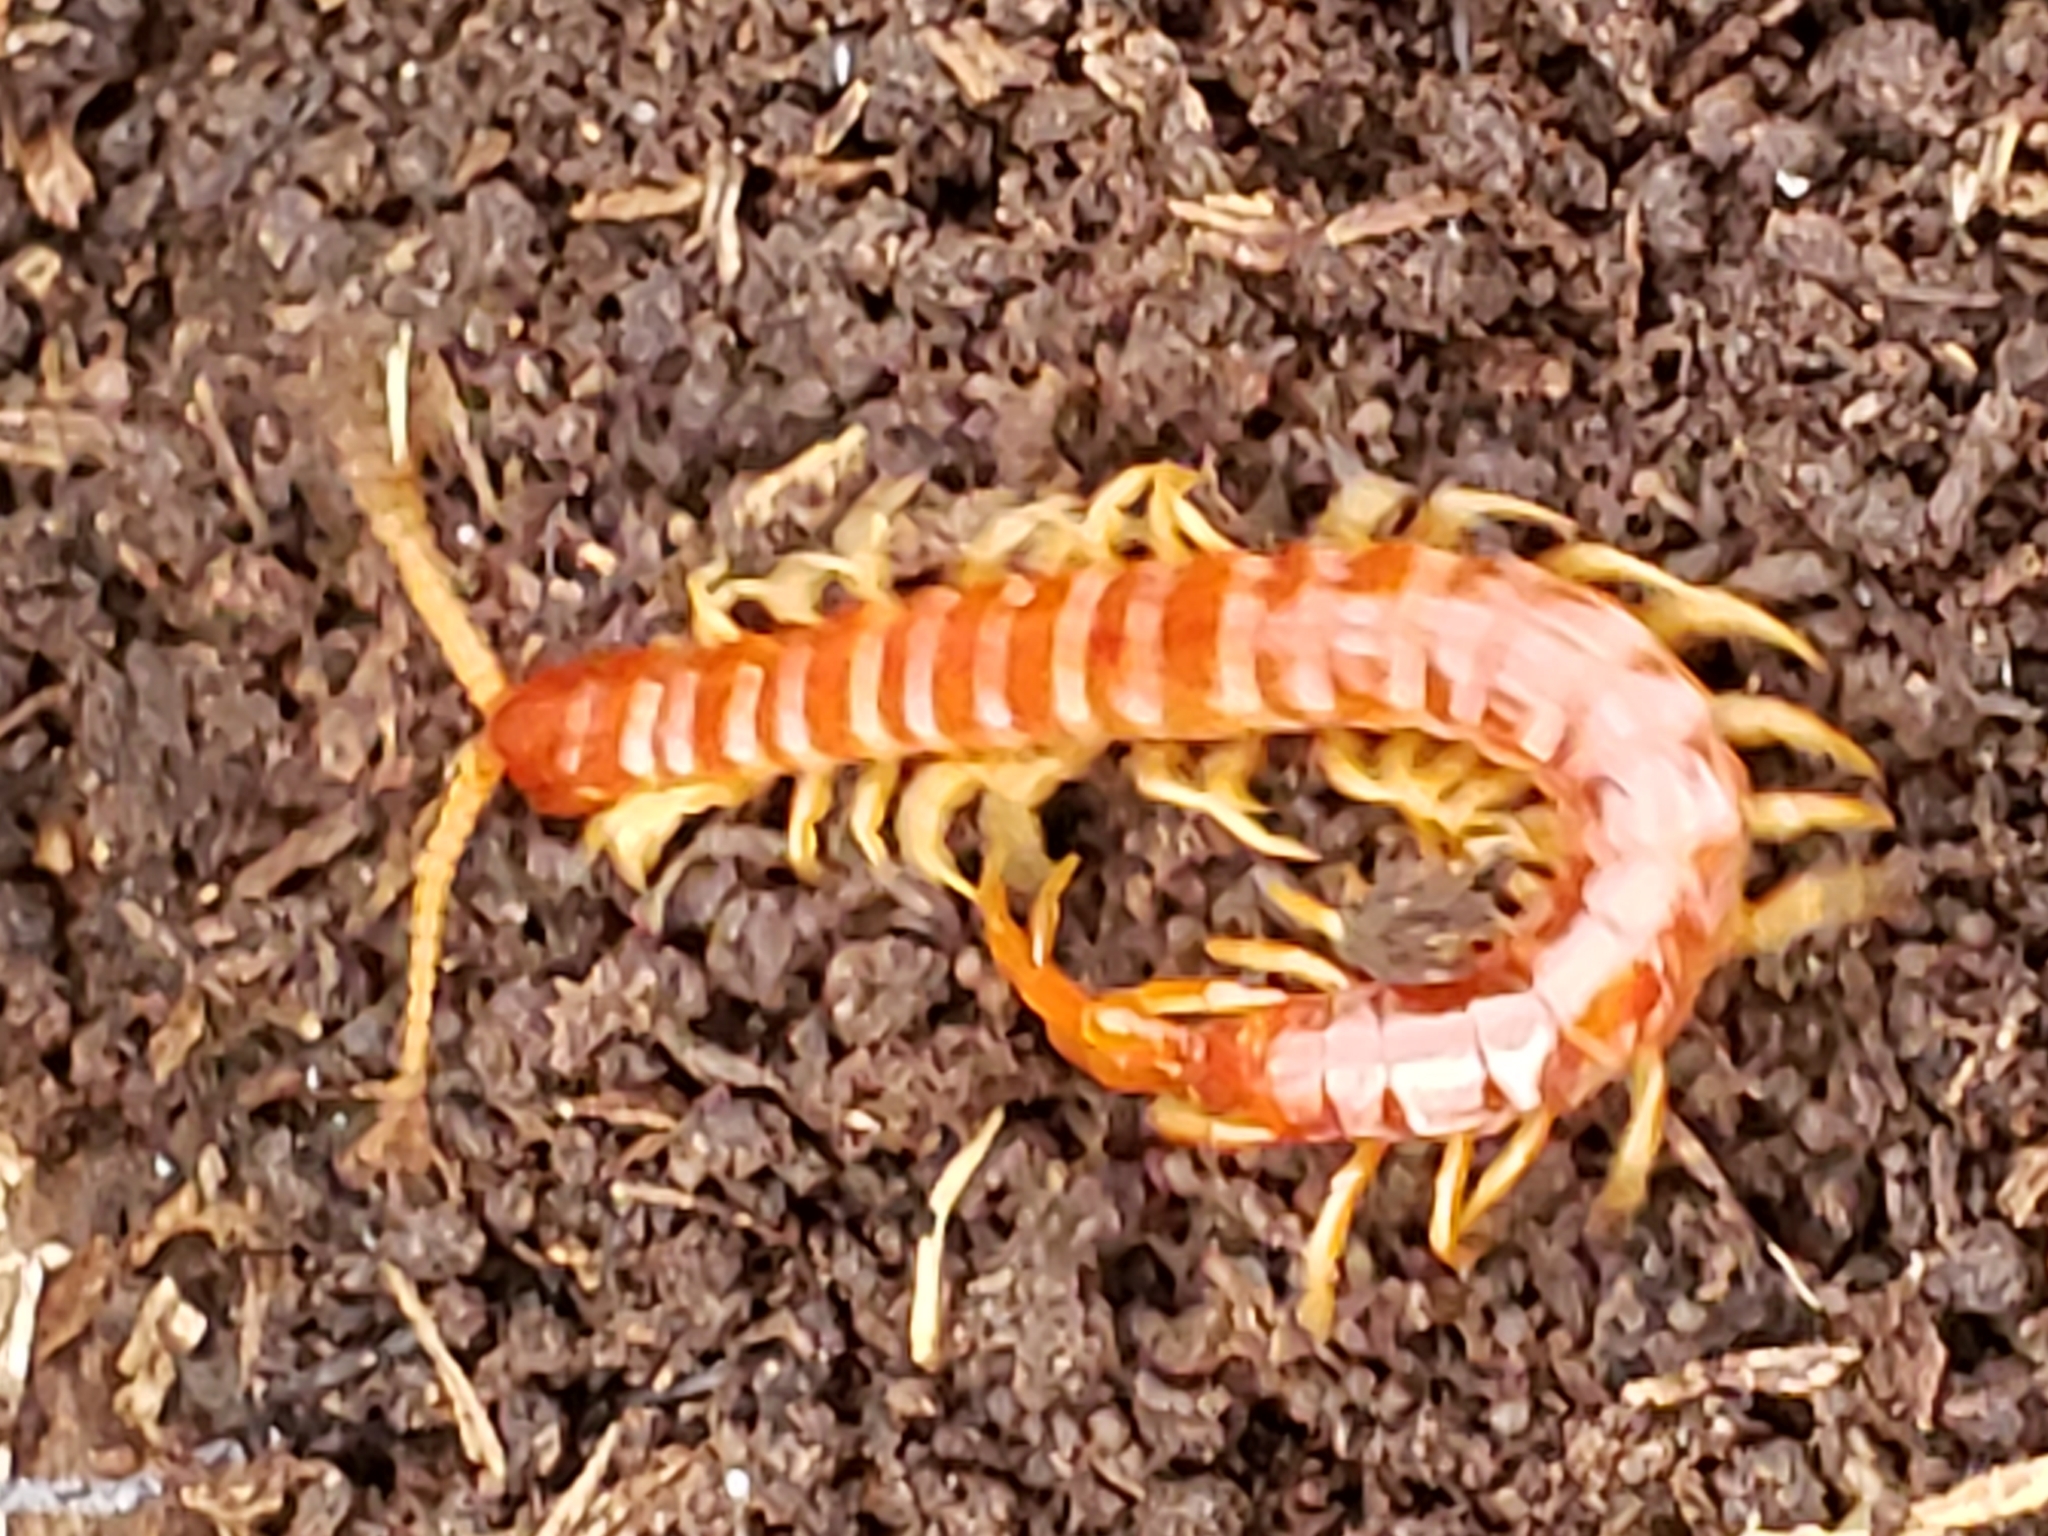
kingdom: Animalia
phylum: Arthropoda
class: Chilopoda
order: Scolopendromorpha
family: Scolopocryptopidae
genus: Scolopocryptops
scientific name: Scolopocryptops sexspinosus
